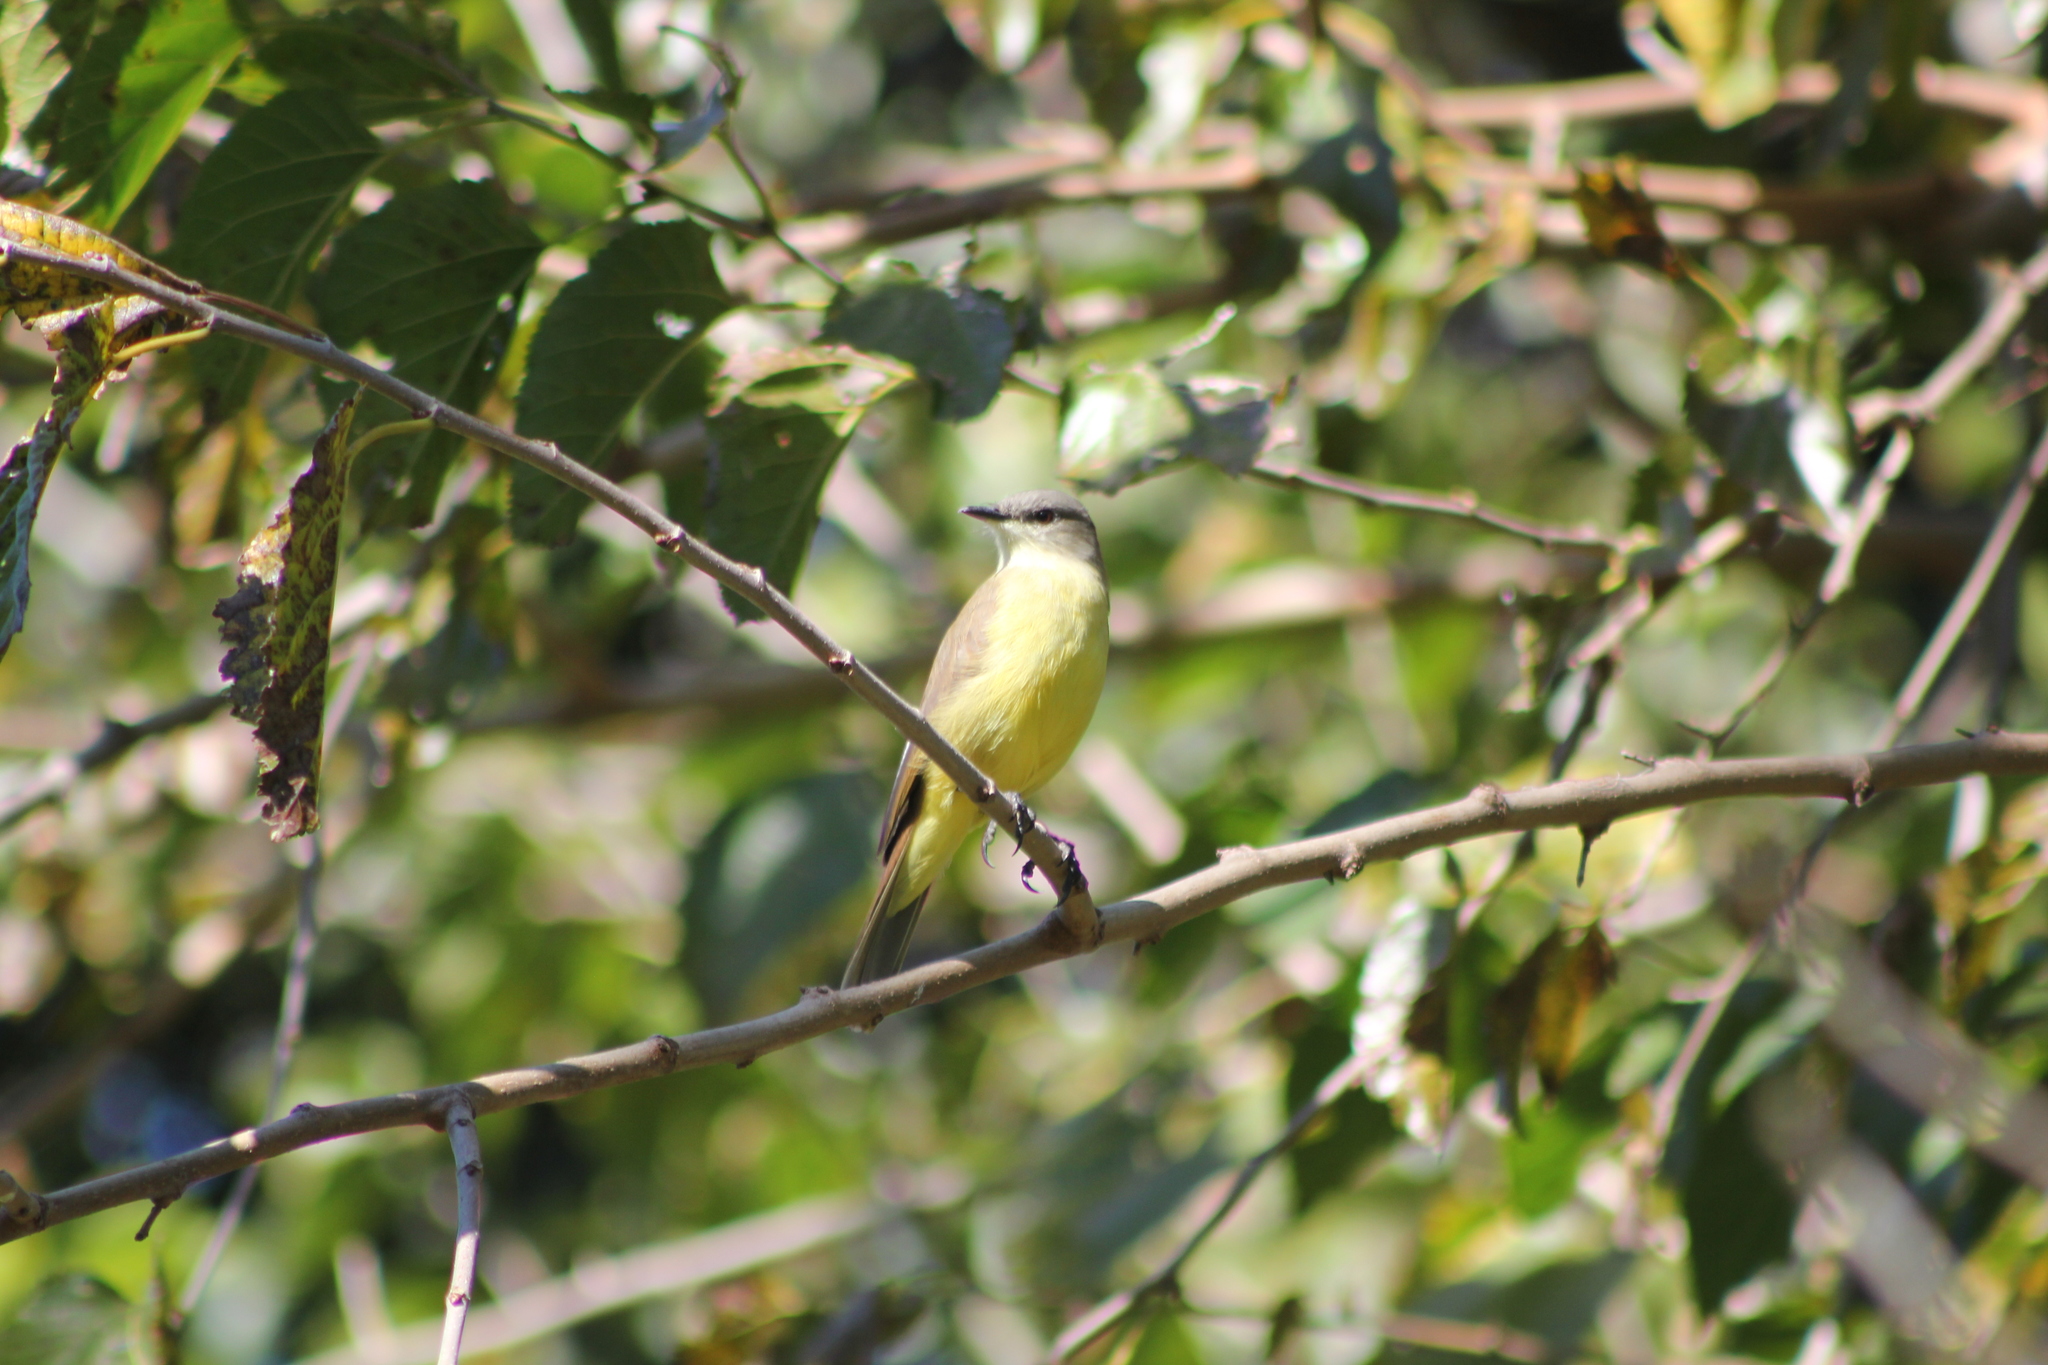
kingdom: Animalia
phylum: Chordata
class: Aves
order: Passeriformes
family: Tyrannidae
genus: Machetornis
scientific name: Machetornis rixosa
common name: Cattle tyrant
